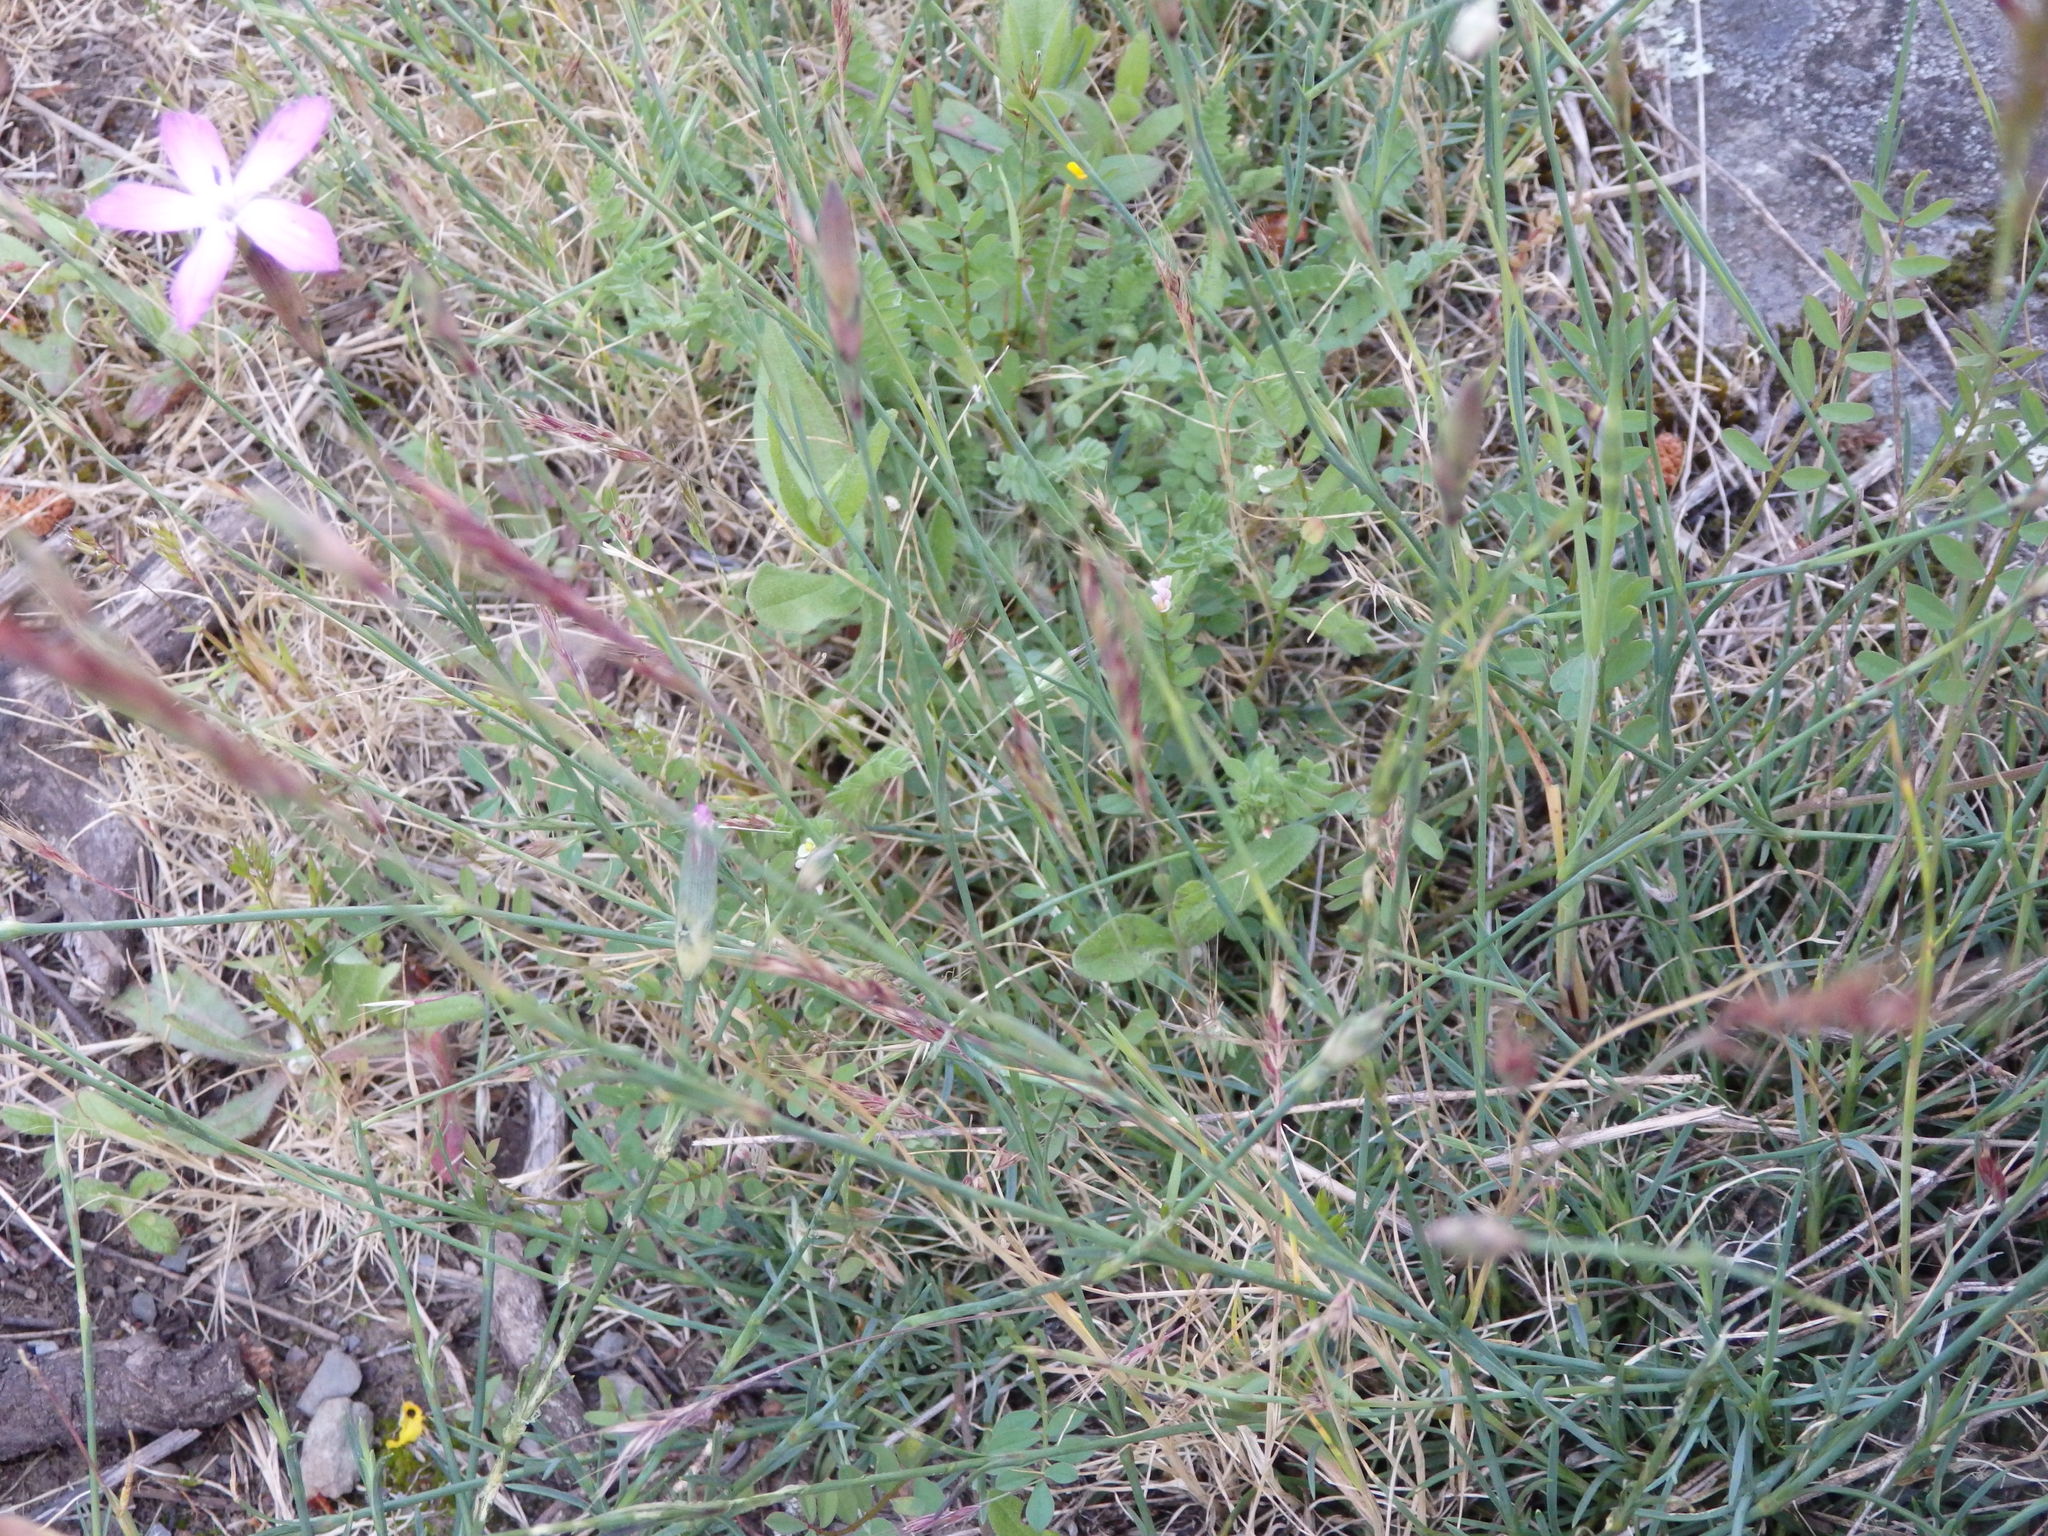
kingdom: Plantae
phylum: Tracheophyta
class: Magnoliopsida
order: Caryophyllales
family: Caryophyllaceae
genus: Dianthus
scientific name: Dianthus lusitanus
